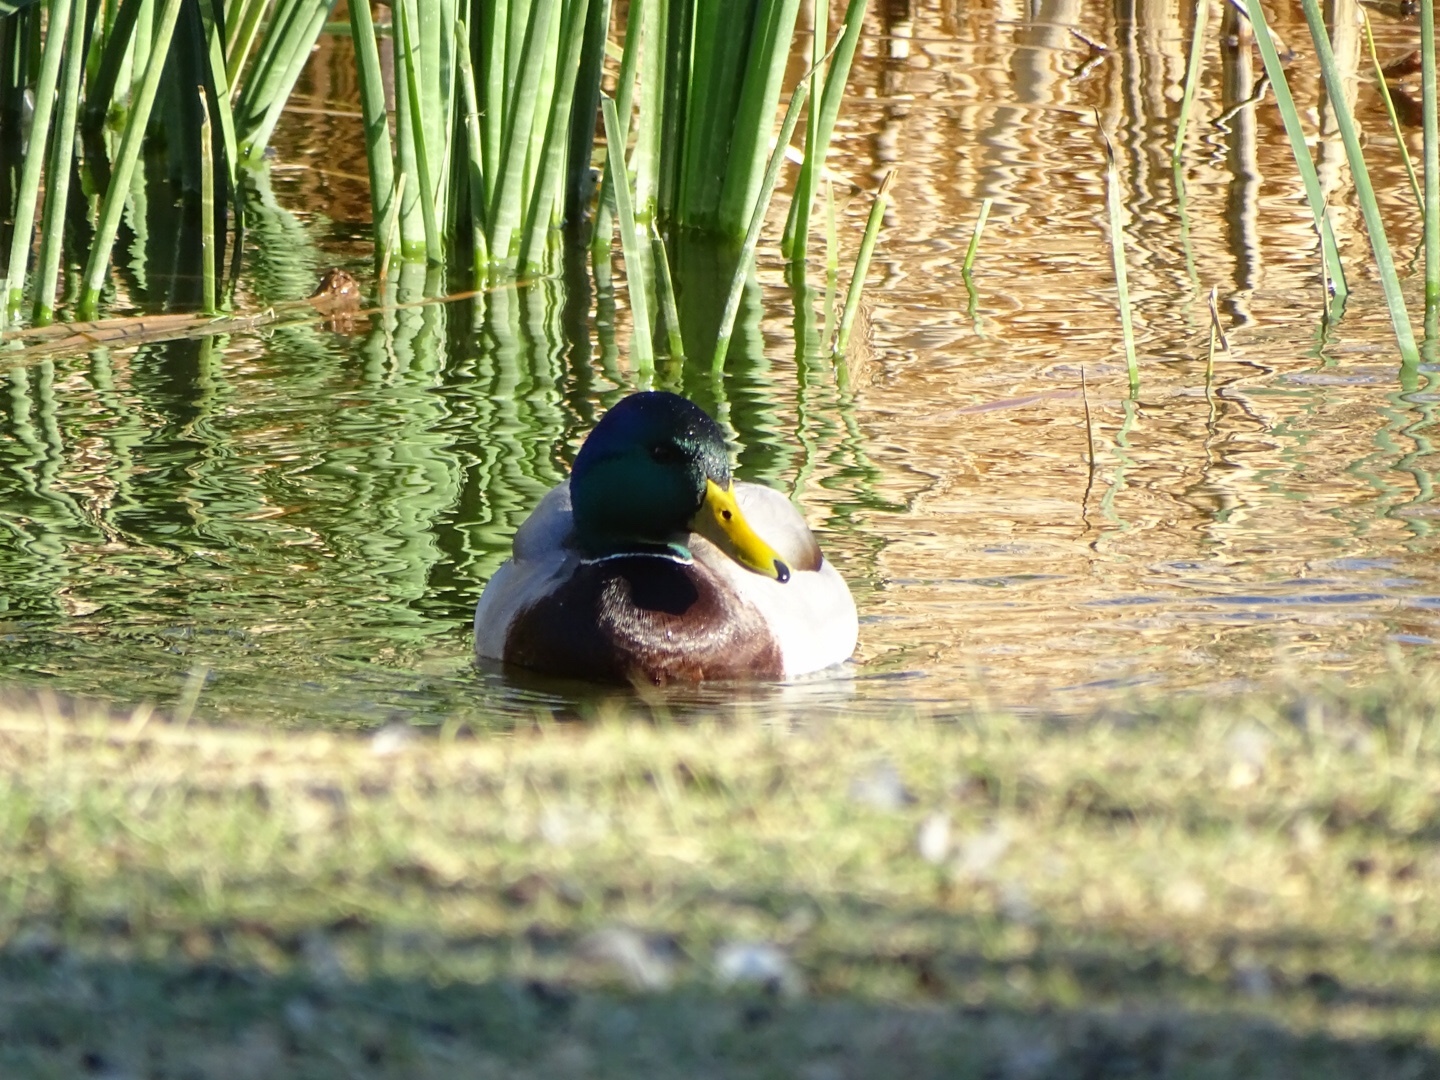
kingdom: Animalia
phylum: Chordata
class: Aves
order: Anseriformes
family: Anatidae
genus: Anas
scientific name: Anas platyrhynchos
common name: Mallard
